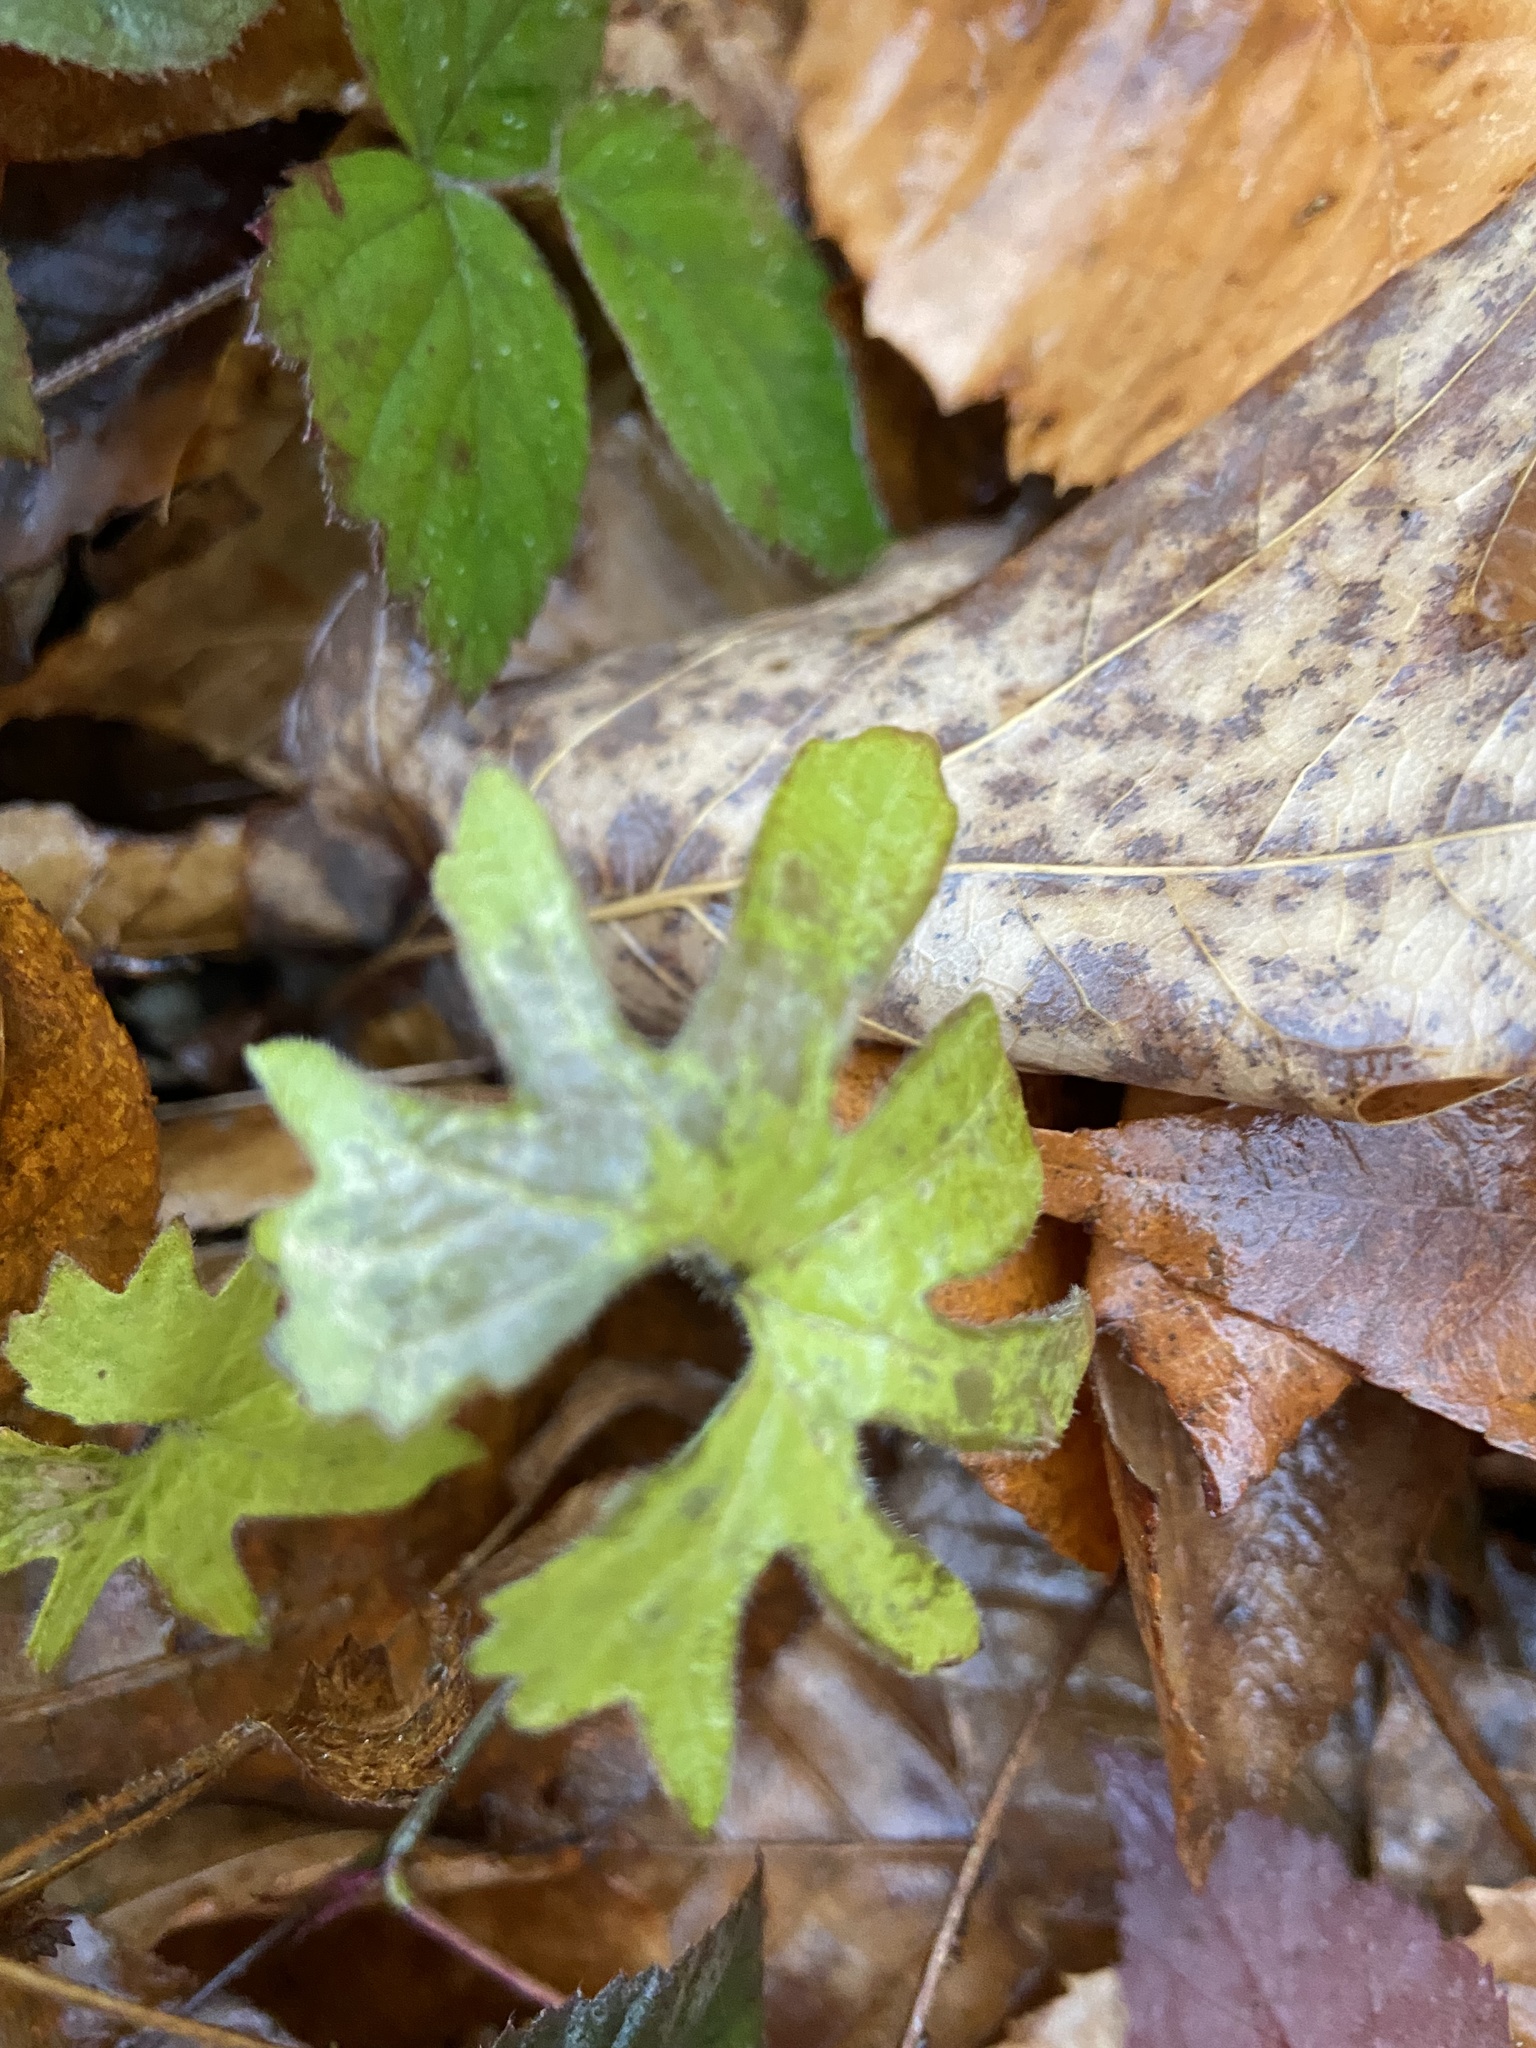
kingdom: Plantae
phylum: Tracheophyta
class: Magnoliopsida
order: Malpighiales
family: Violaceae
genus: Viola
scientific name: Viola palmata
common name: Early blue violet
